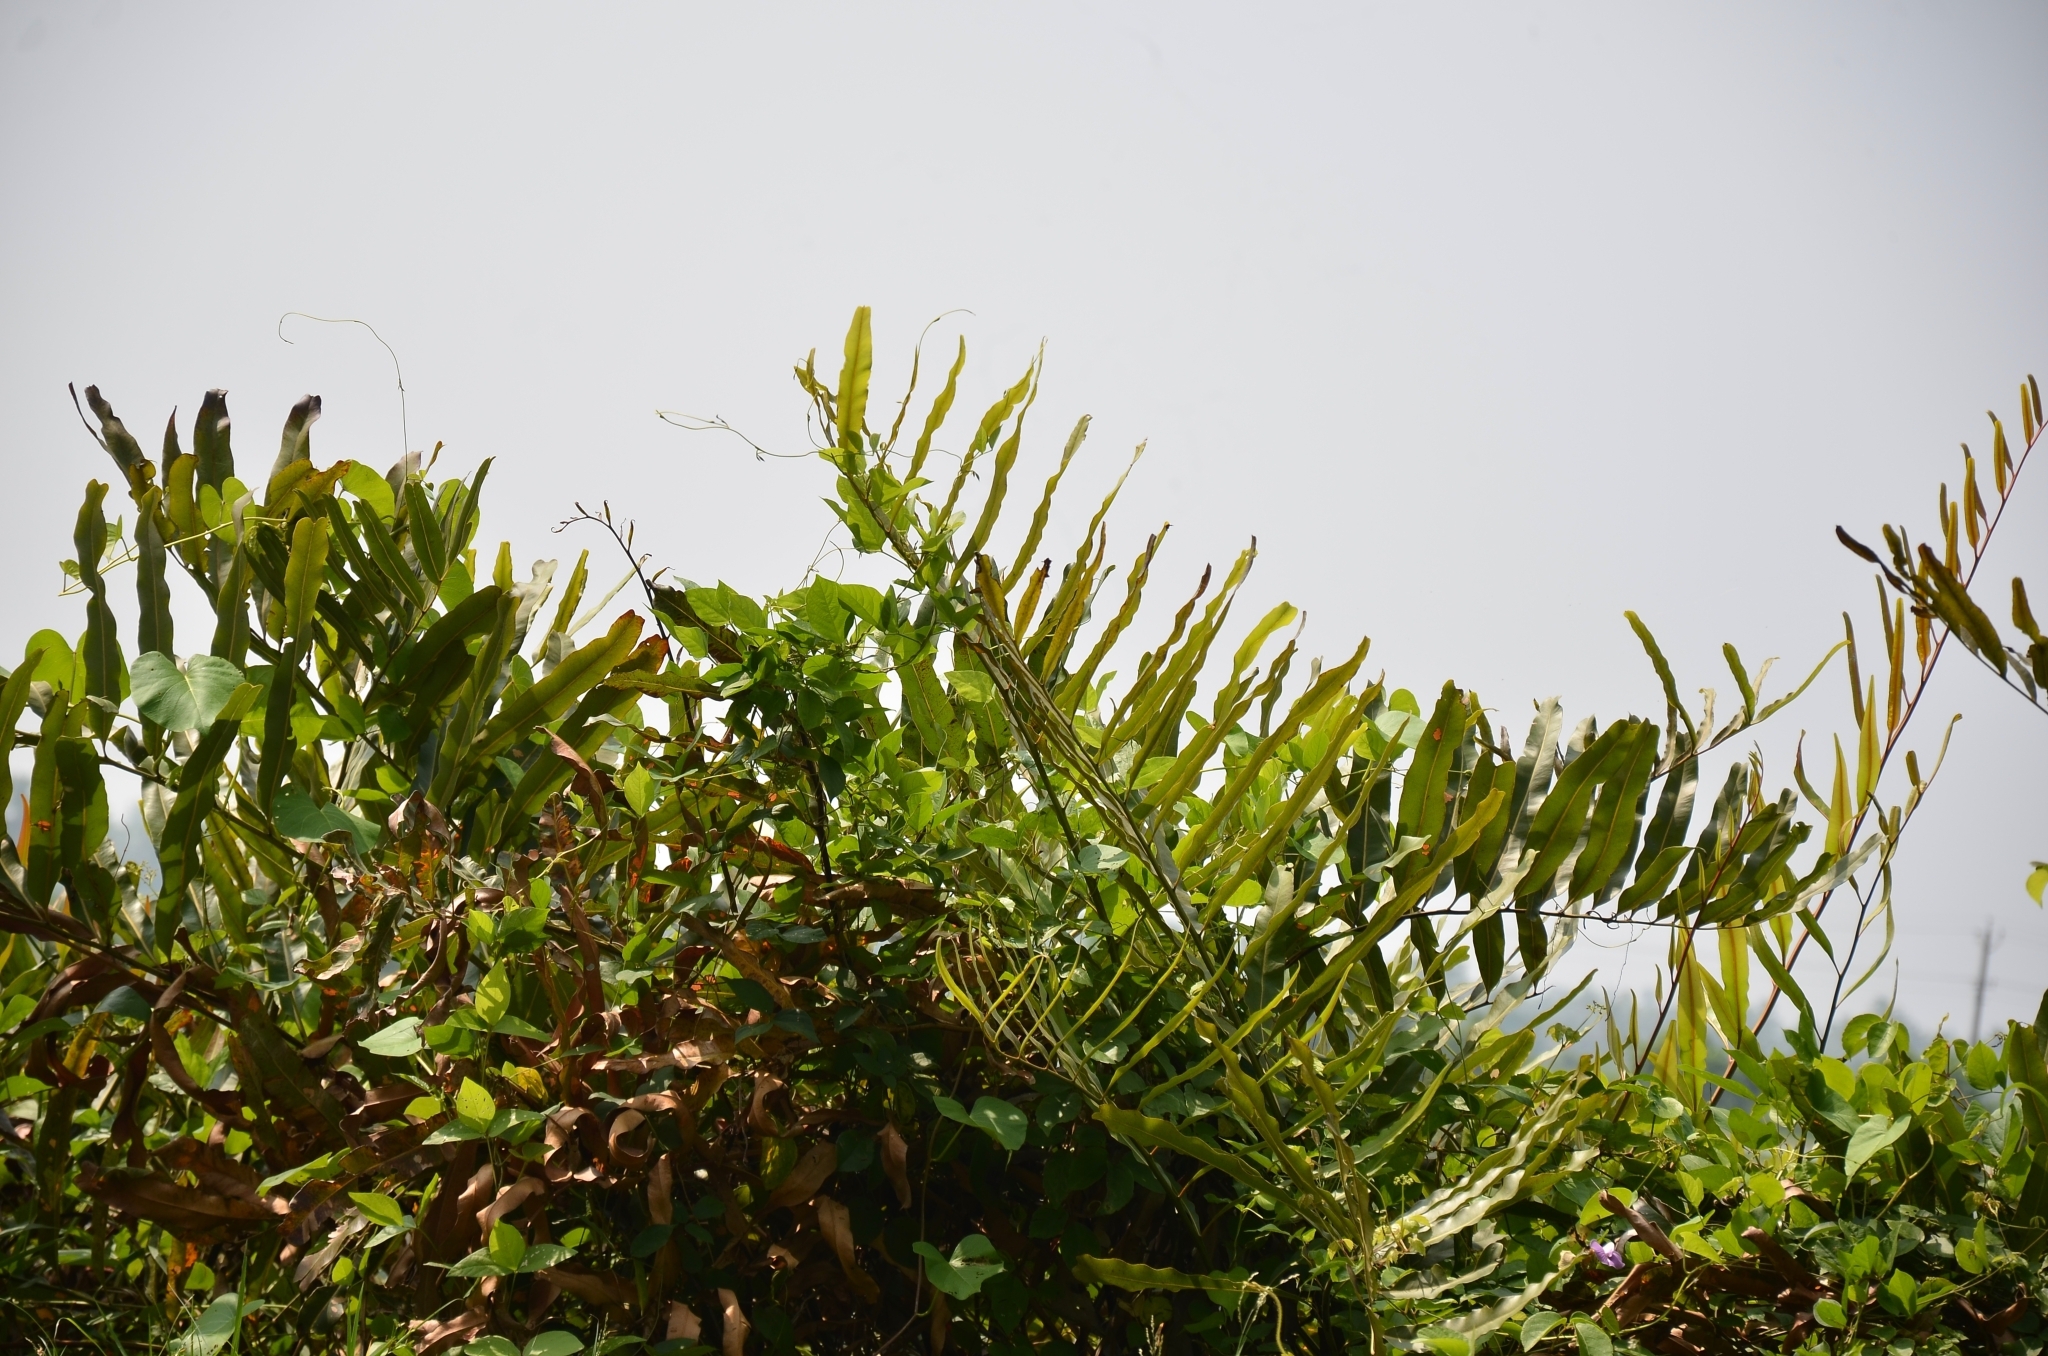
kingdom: Plantae
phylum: Tracheophyta
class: Polypodiopsida
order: Polypodiales
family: Pteridaceae
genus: Acrostichum
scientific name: Acrostichum aureum
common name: Leather fern
